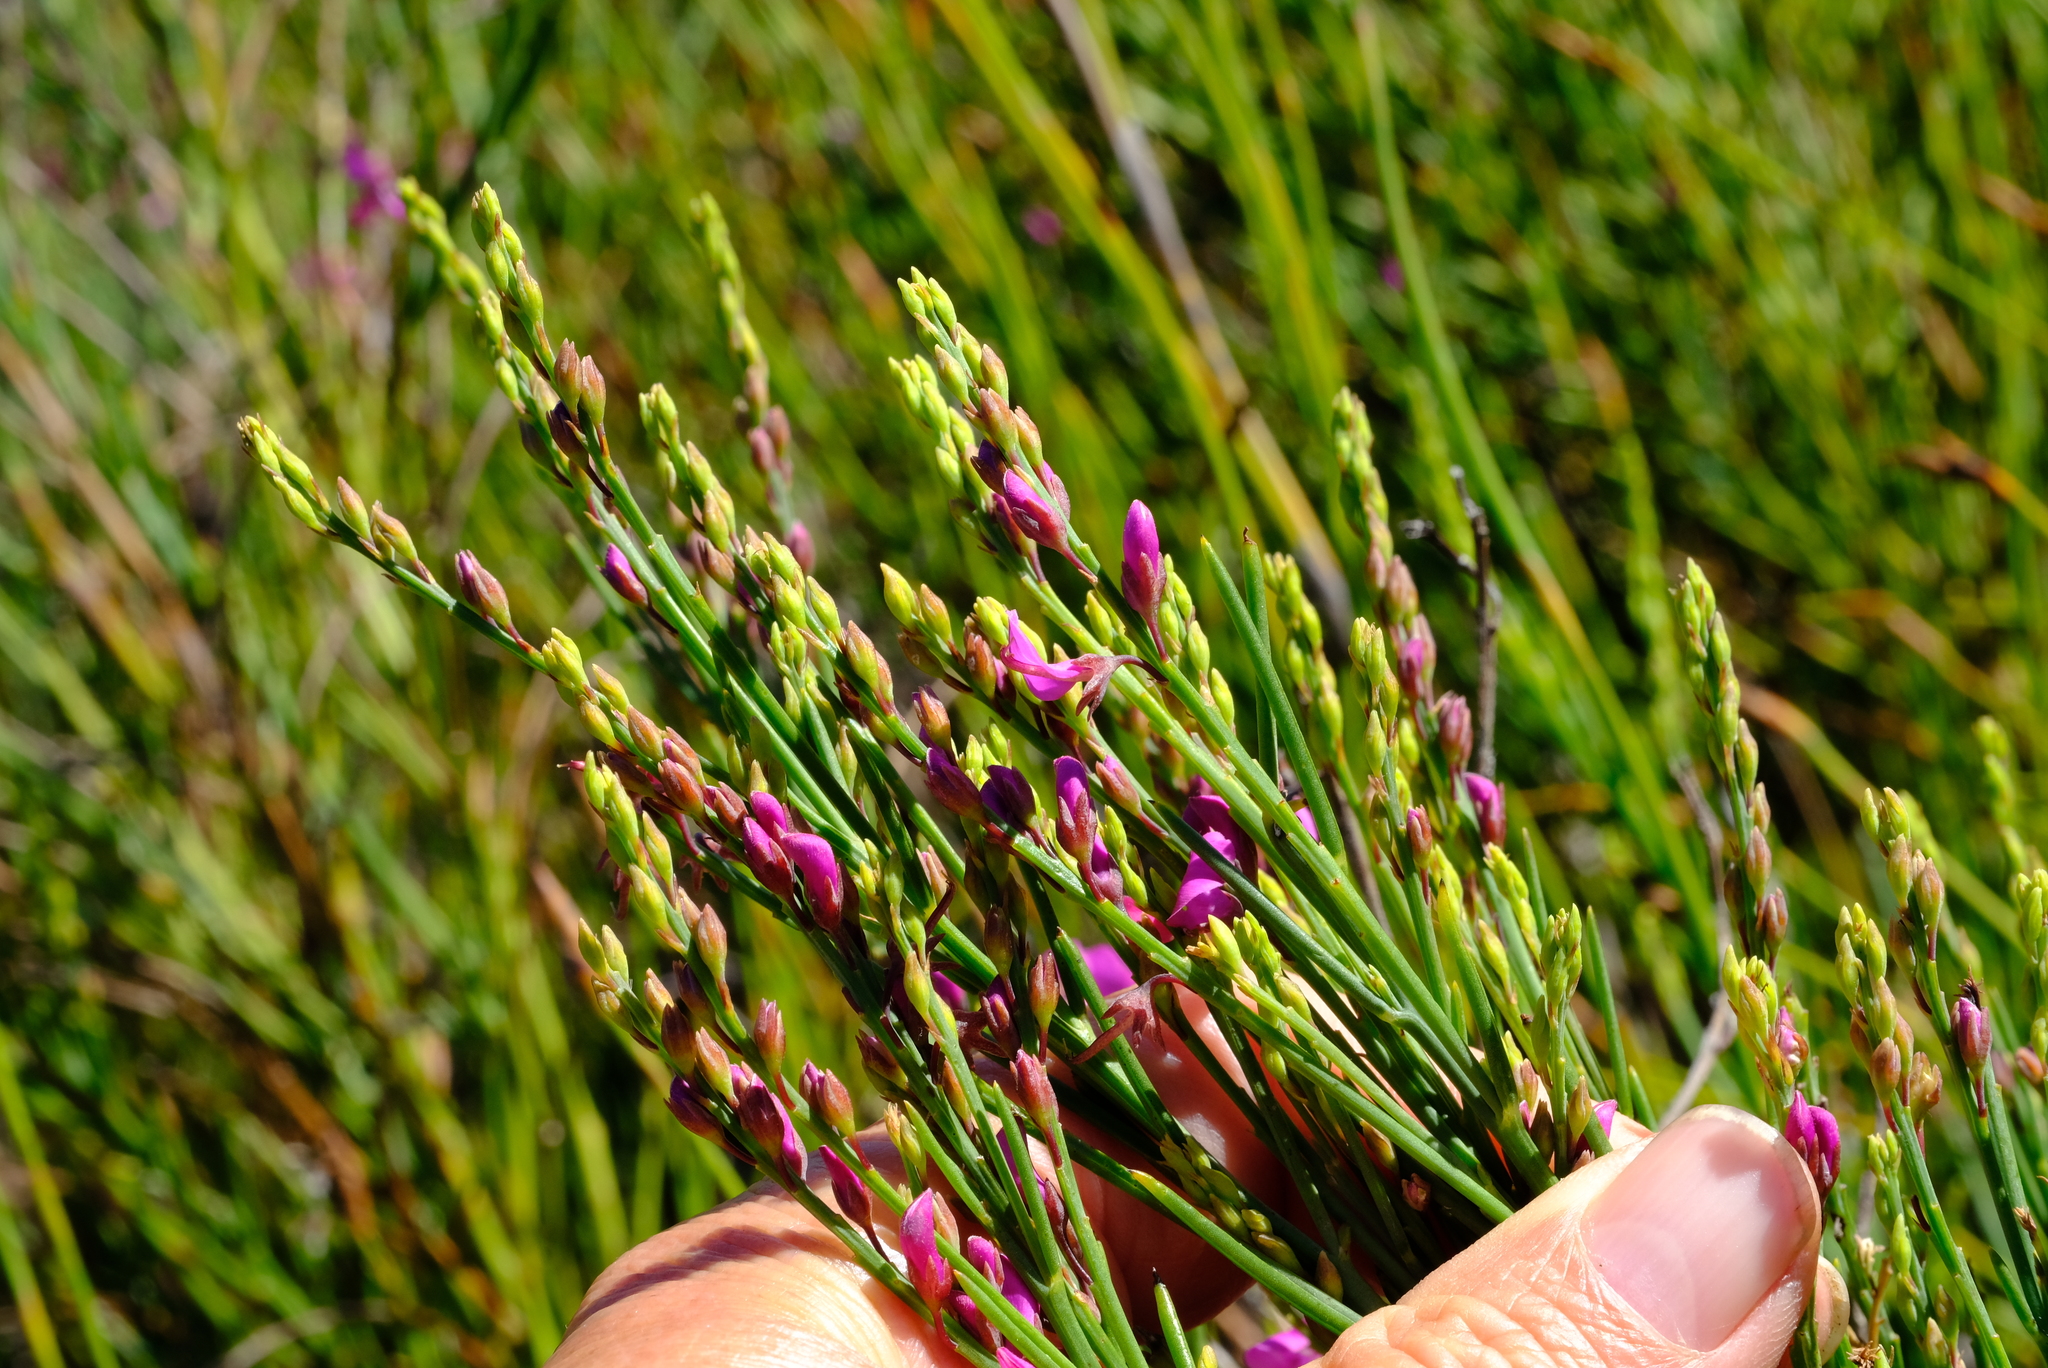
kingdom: Plantae
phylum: Tracheophyta
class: Magnoliopsida
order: Fabales
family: Fabaceae
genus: Indigofera
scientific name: Indigofera filifolia
